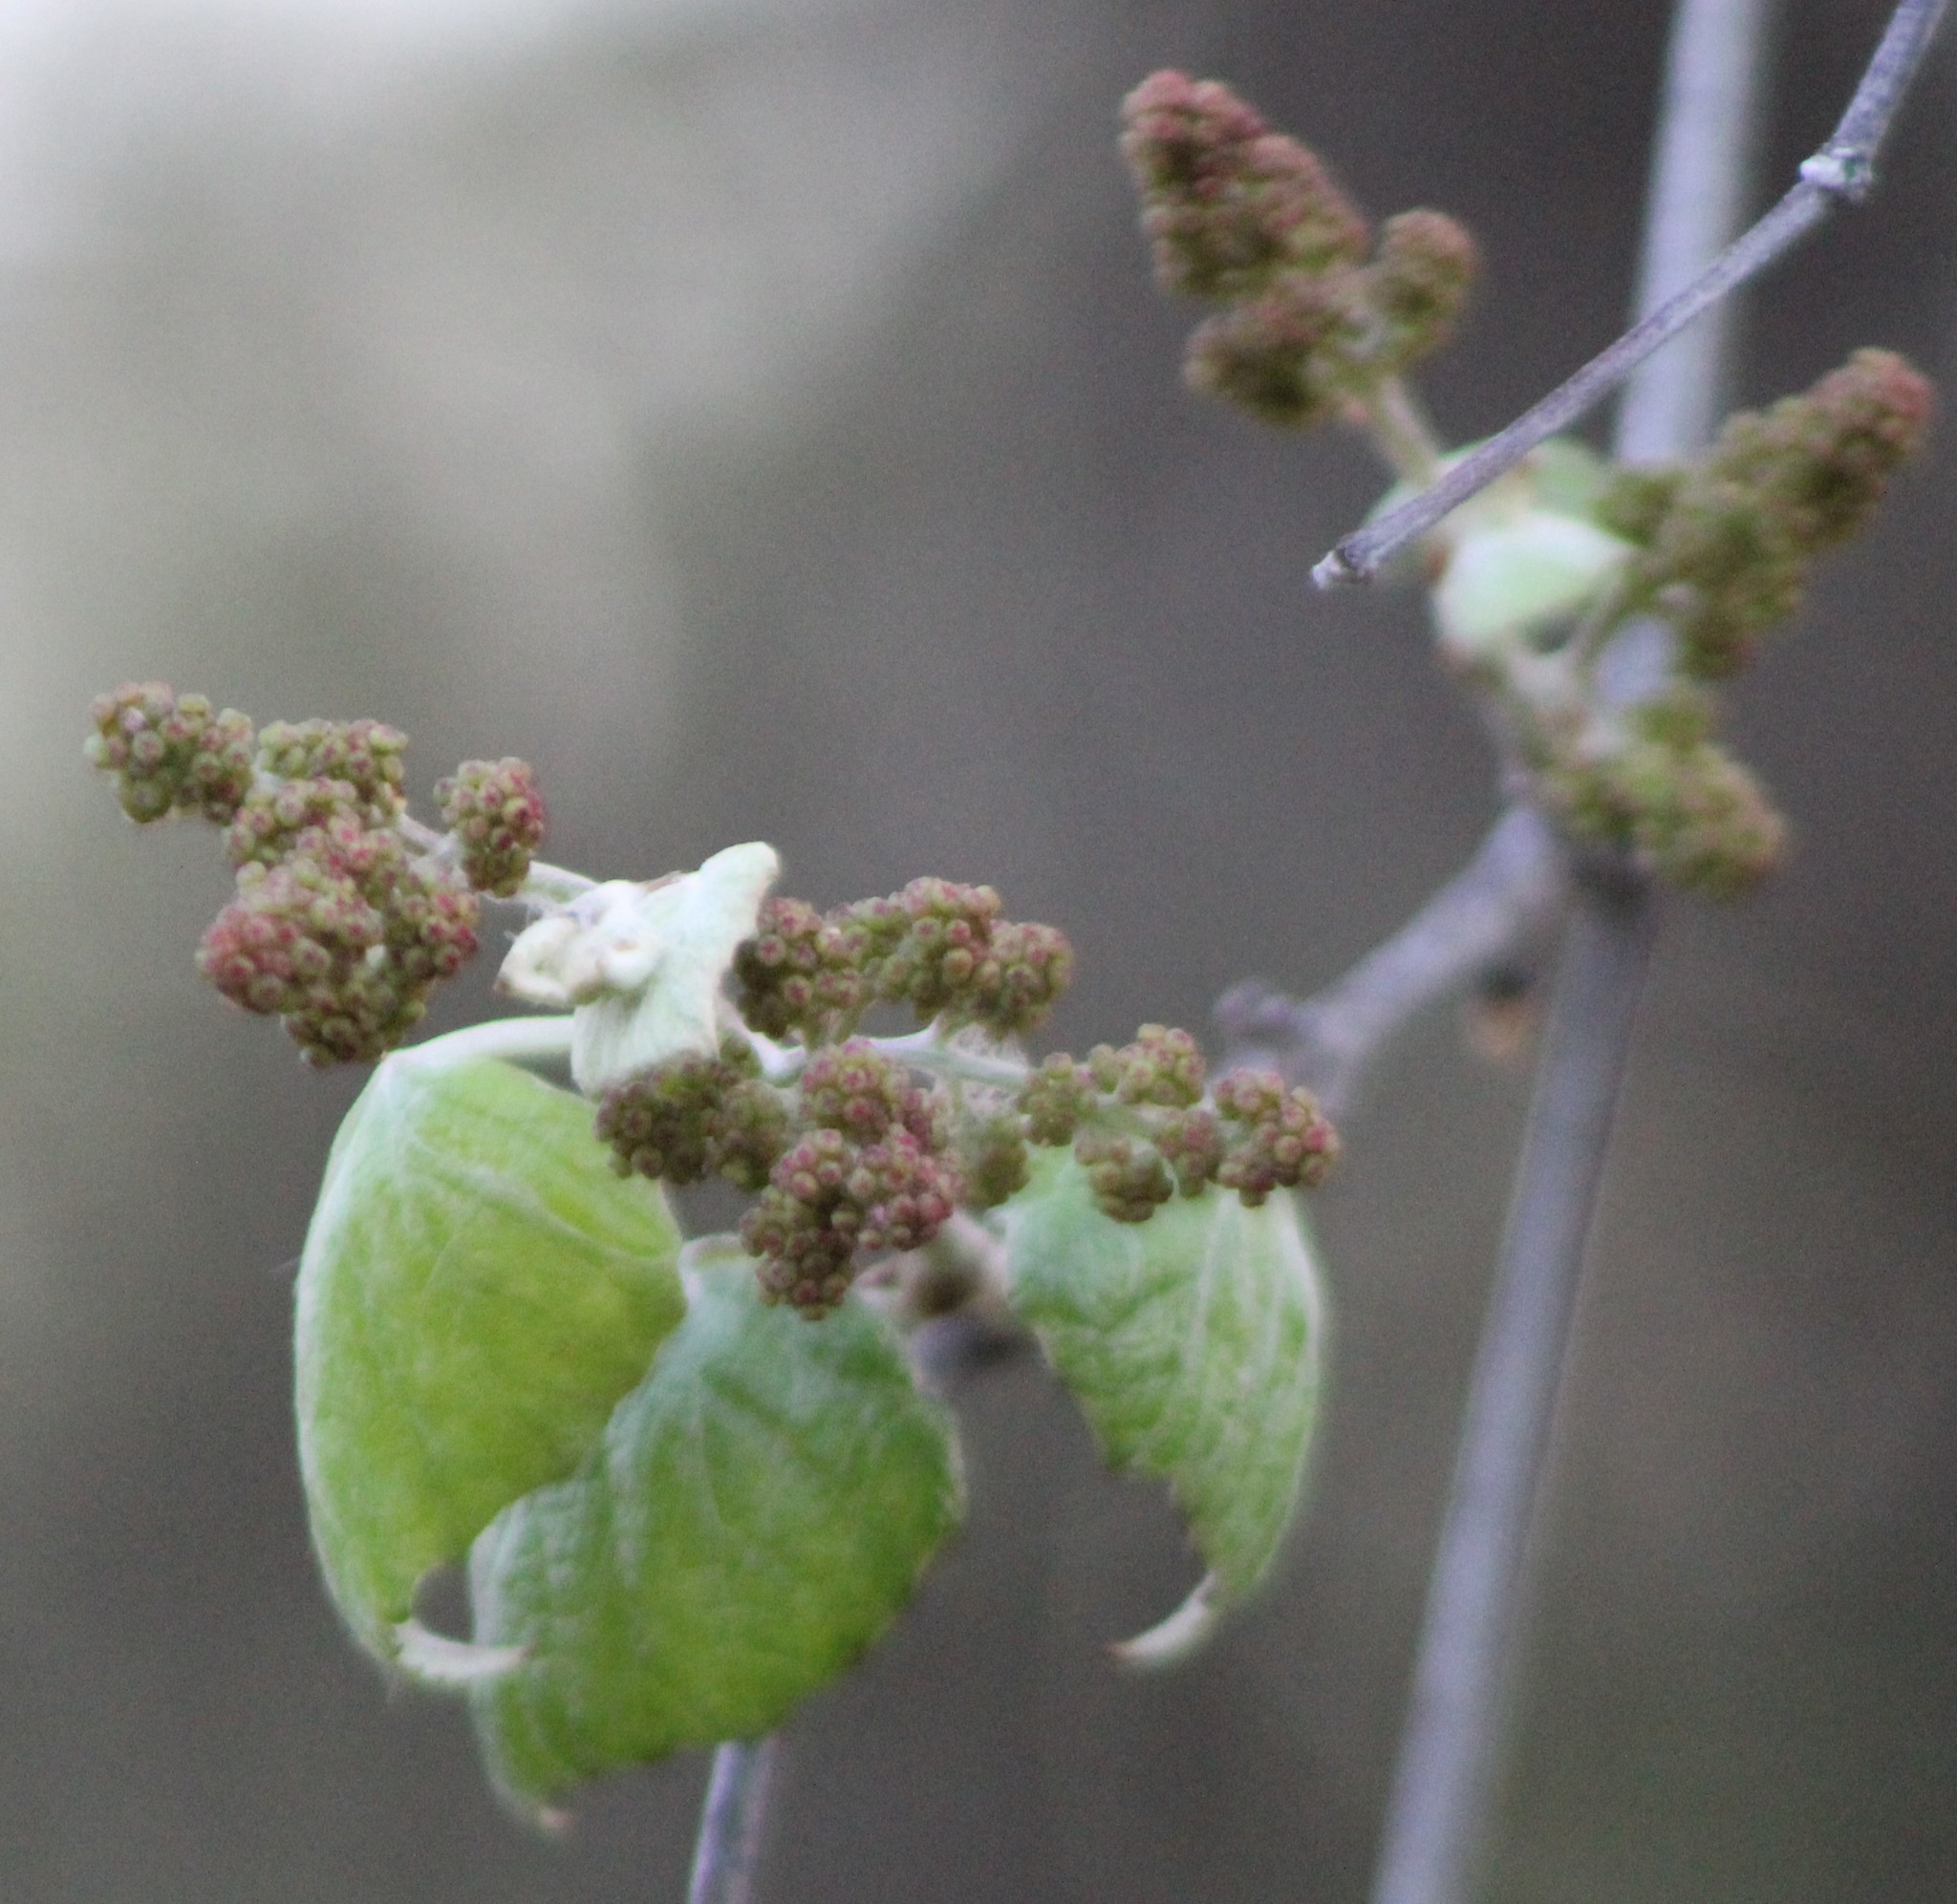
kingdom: Plantae
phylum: Tracheophyta
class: Magnoliopsida
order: Vitales
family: Vitaceae
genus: Vitis
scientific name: Vitis mustangensis
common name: Mustang grape
